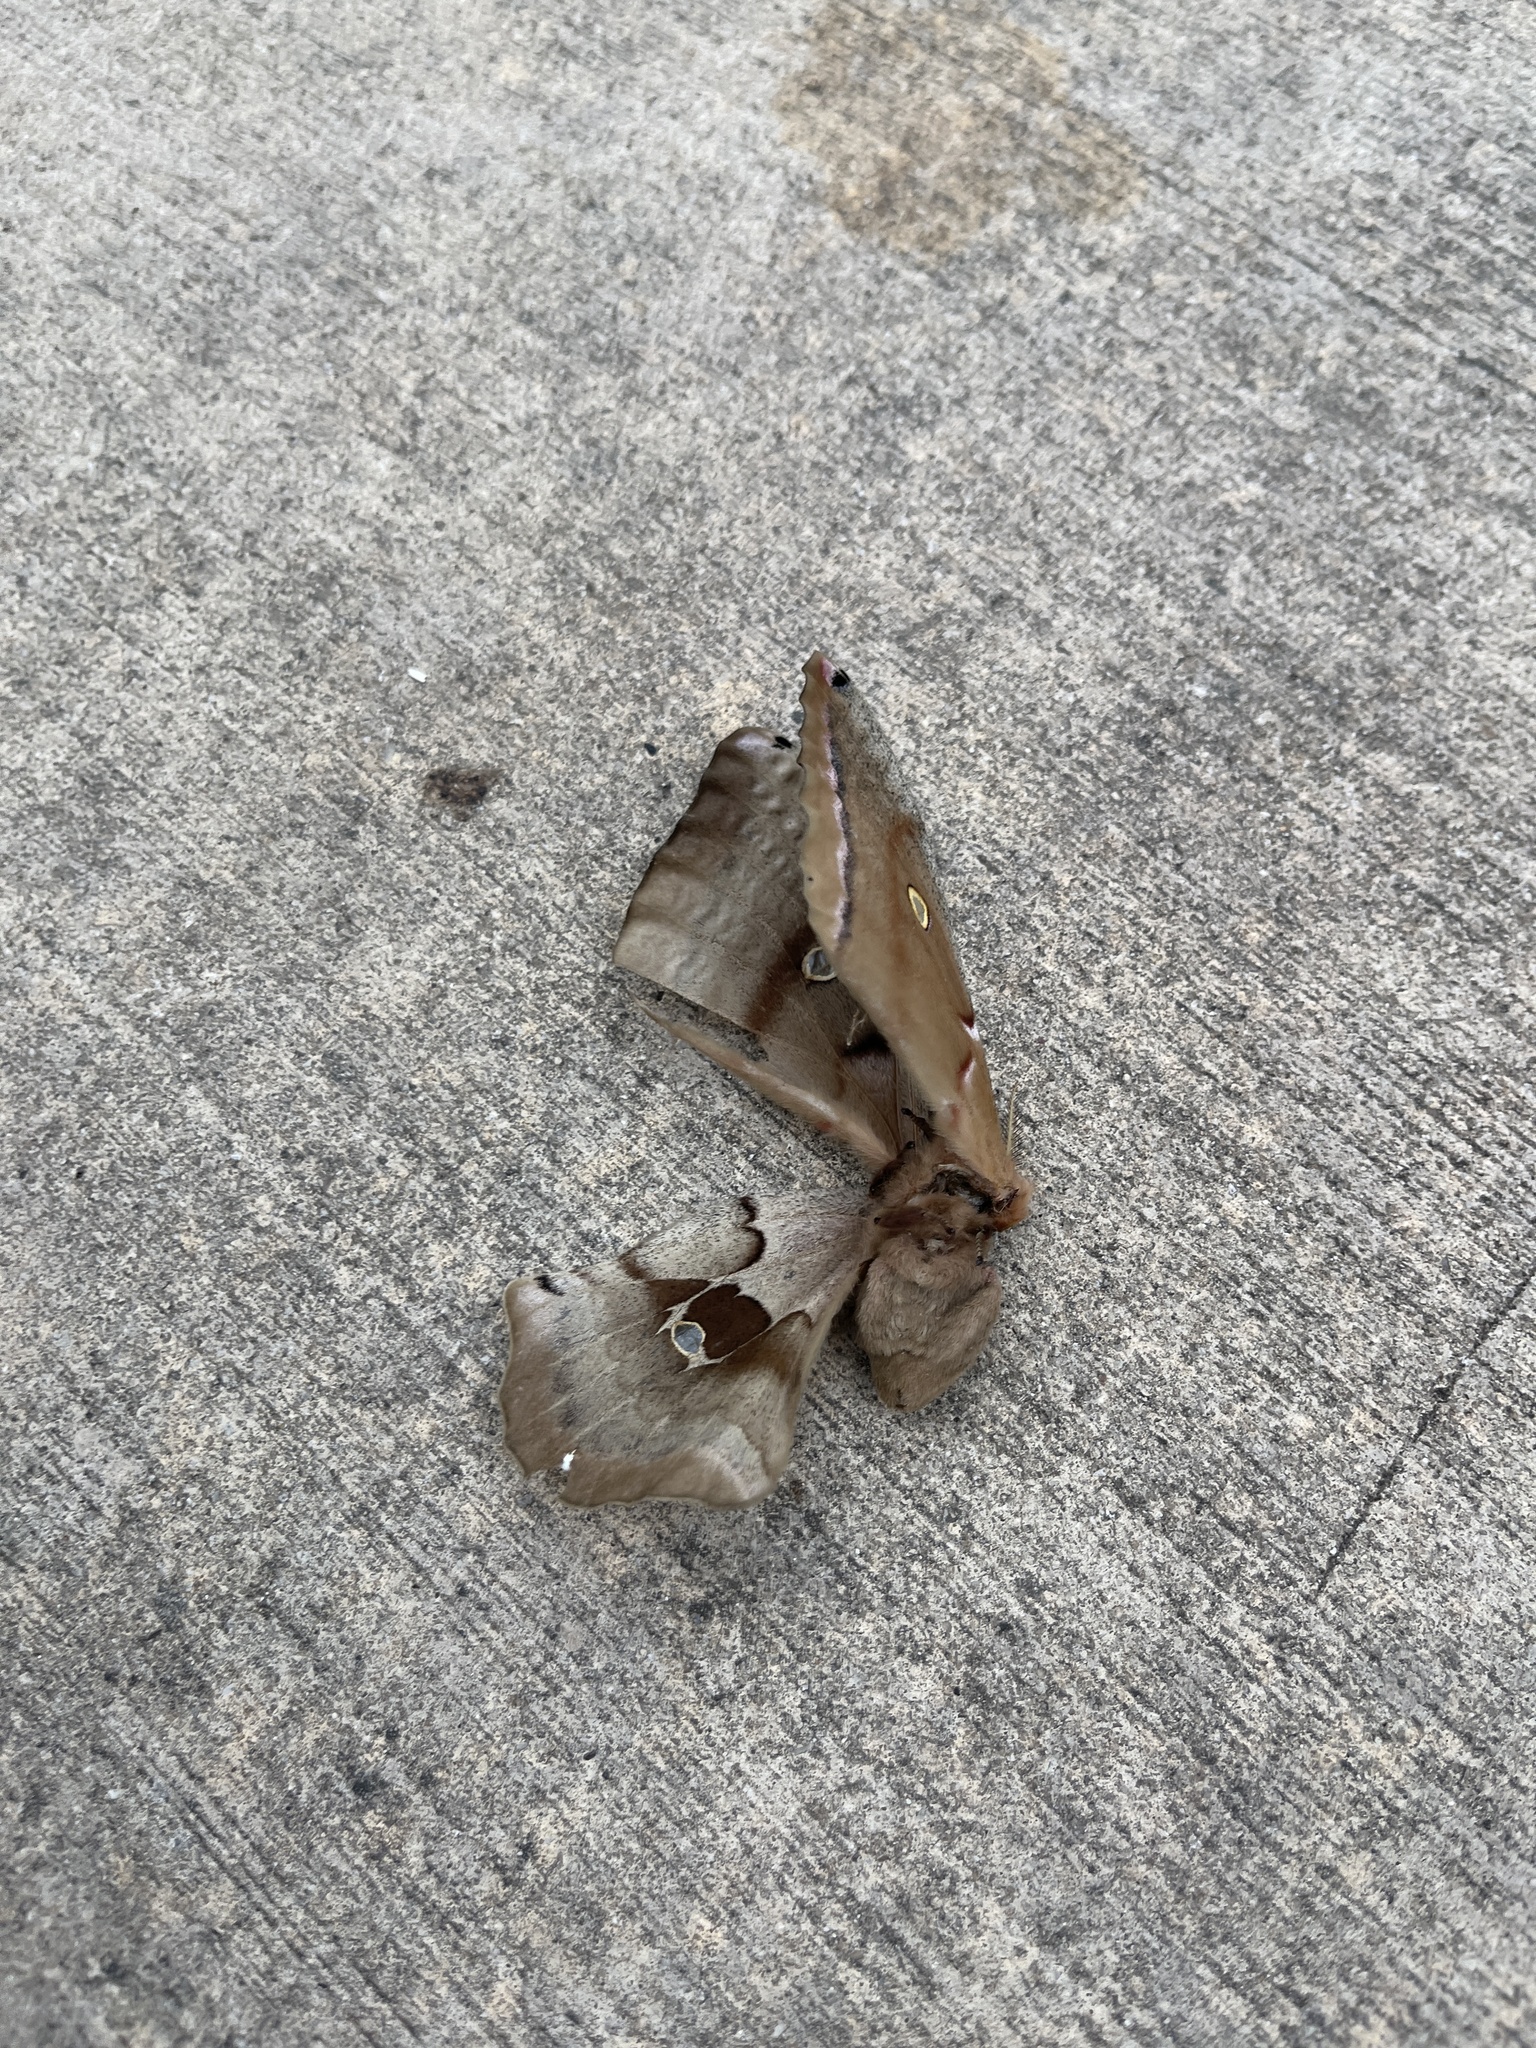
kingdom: Animalia
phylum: Arthropoda
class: Insecta
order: Lepidoptera
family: Saturniidae
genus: Antheraea
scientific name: Antheraea polyphemus
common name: Polyphemus moth
